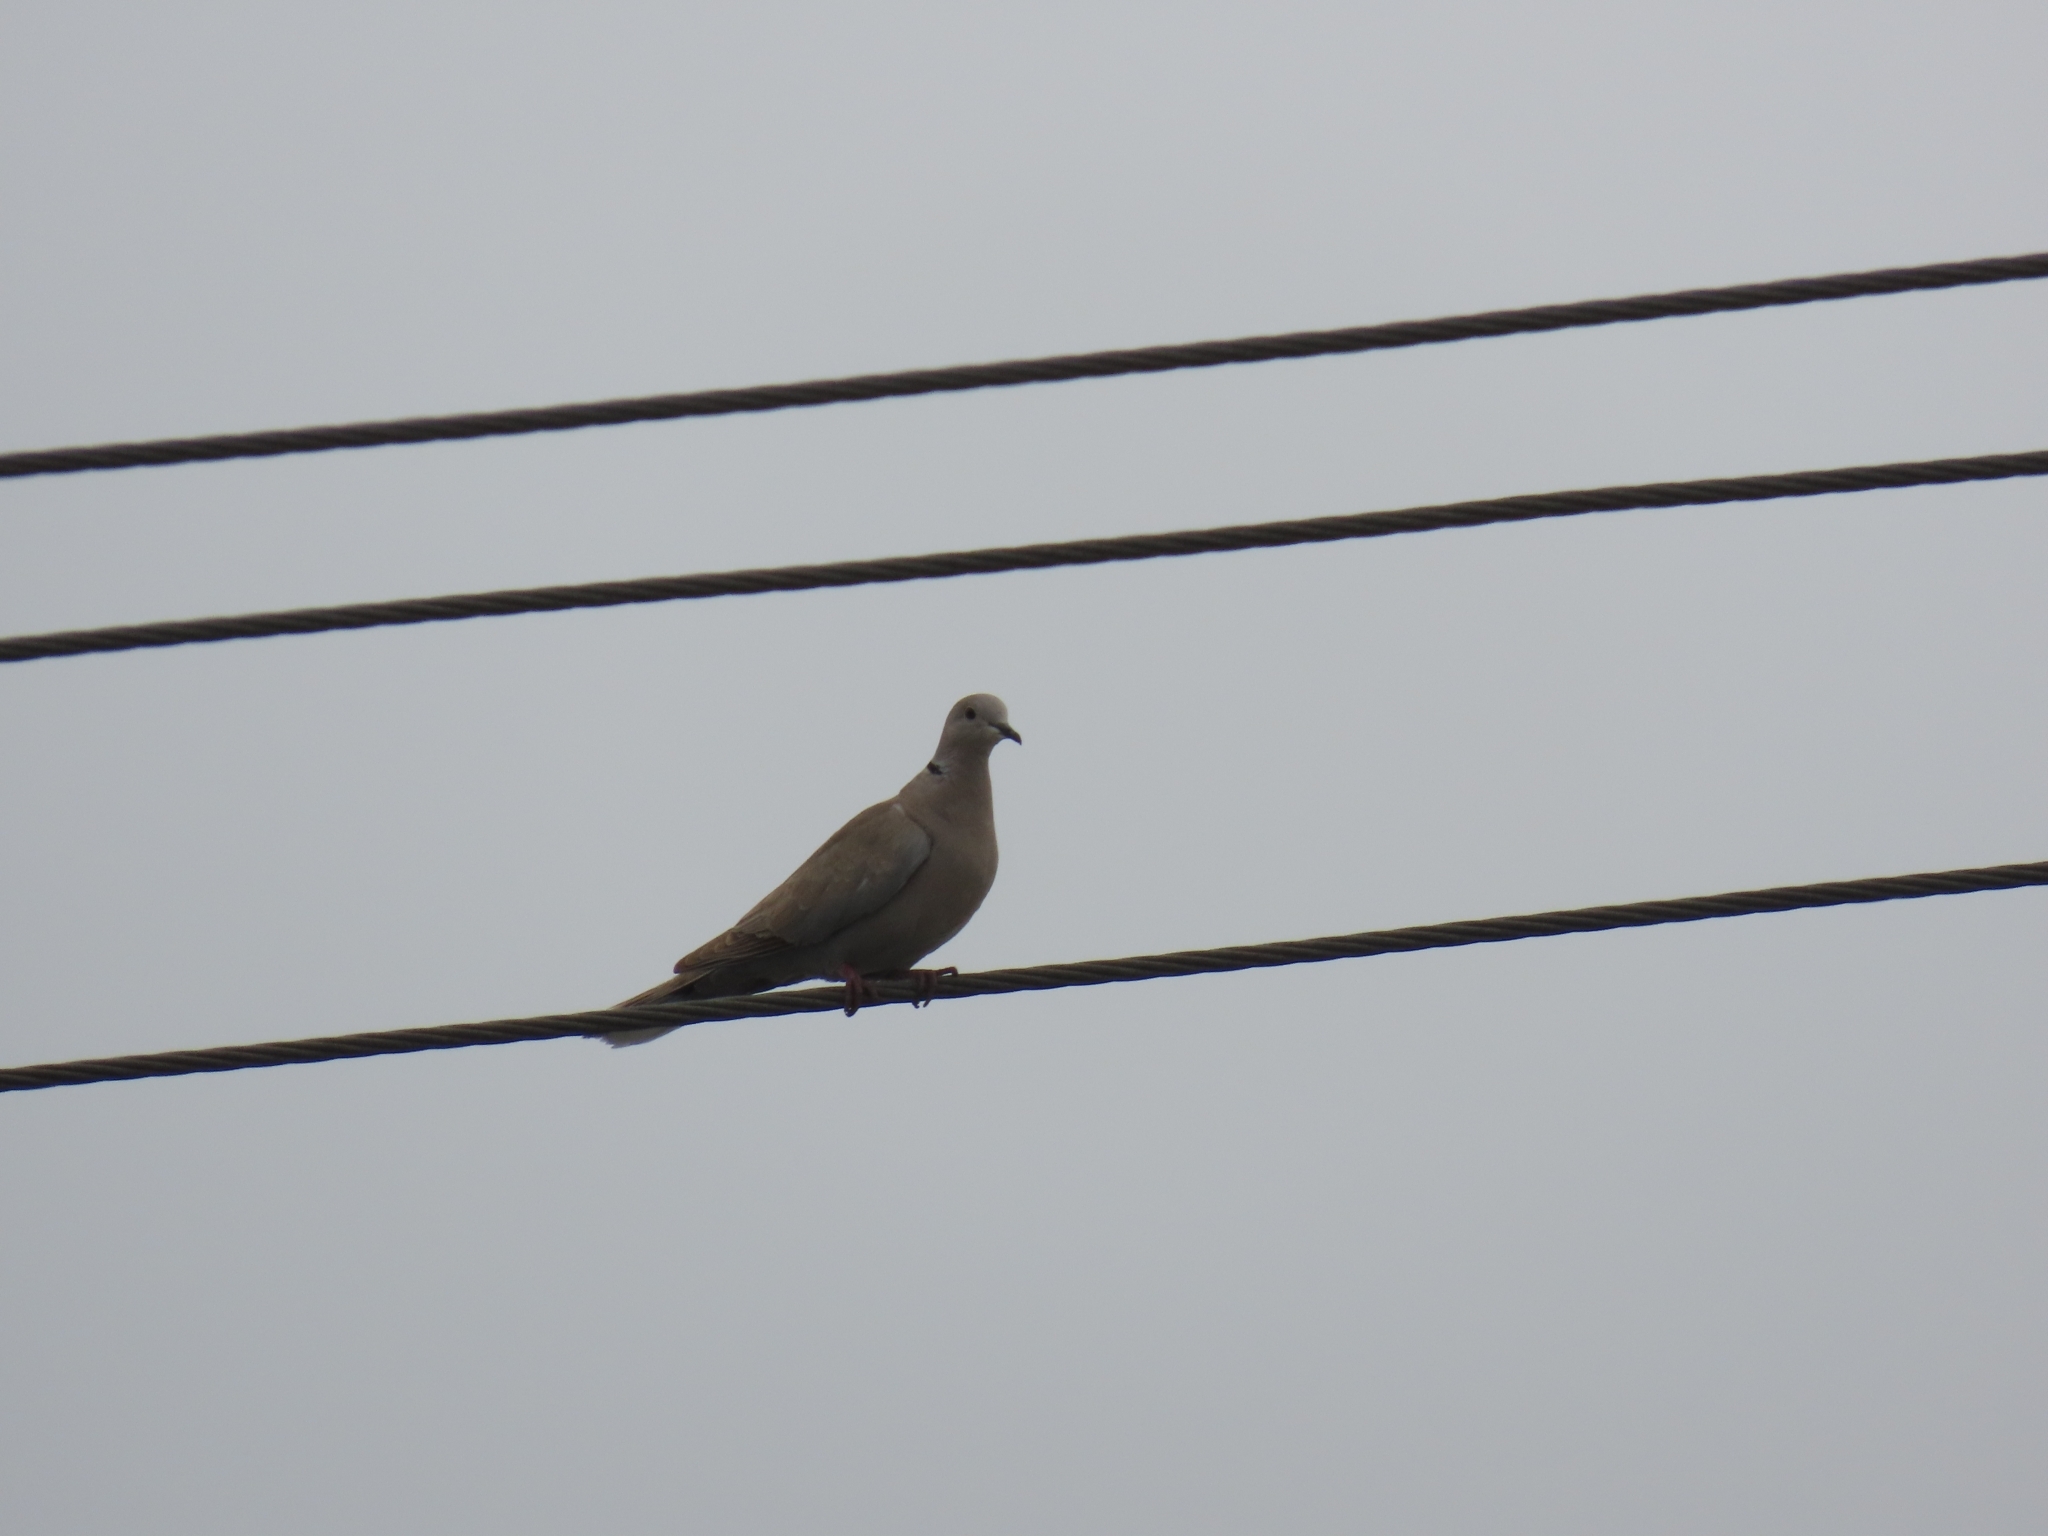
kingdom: Animalia
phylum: Chordata
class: Aves
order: Columbiformes
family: Columbidae
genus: Streptopelia
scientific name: Streptopelia decaocto
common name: Eurasian collared dove
